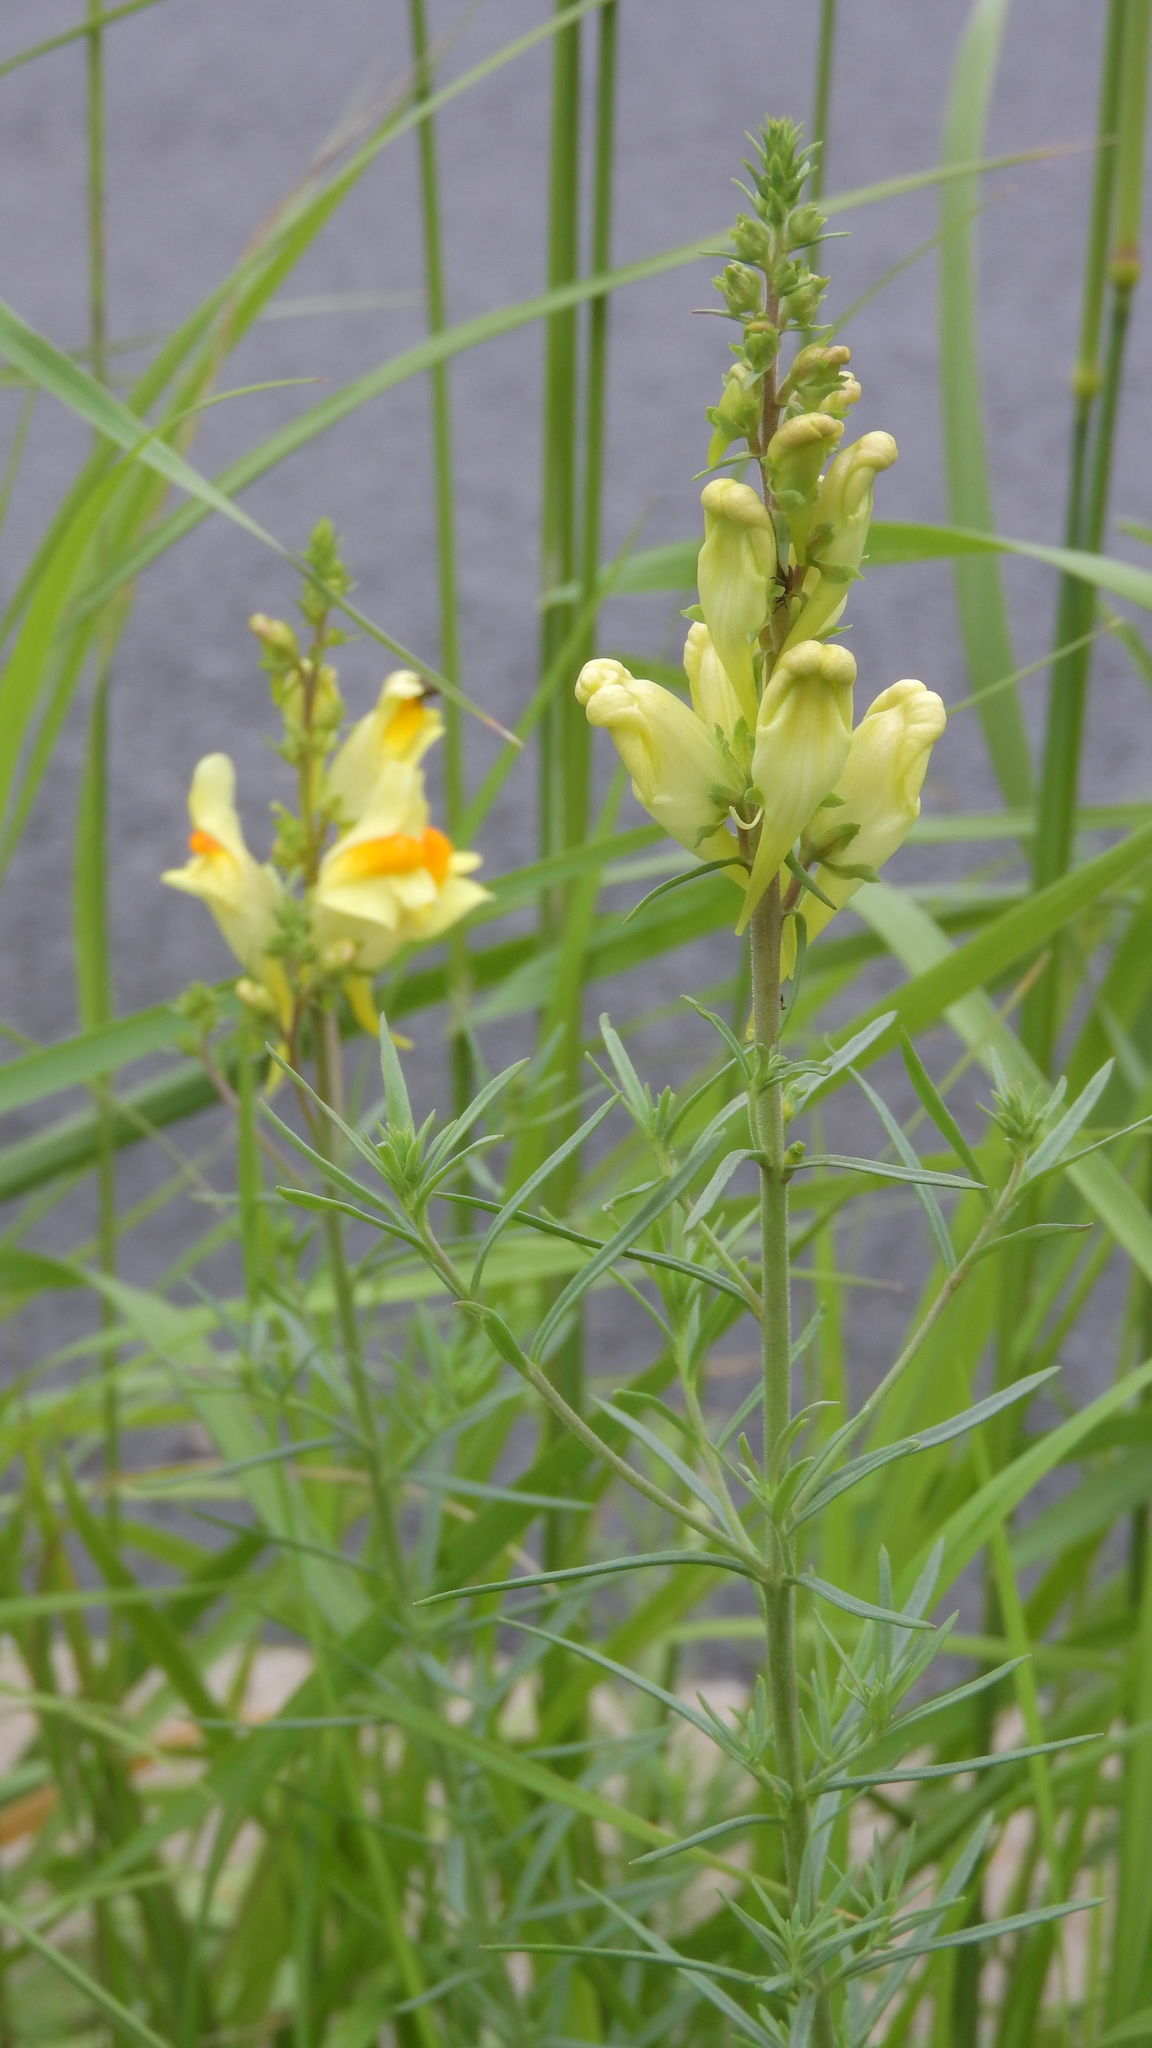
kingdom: Plantae
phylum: Tracheophyta
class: Magnoliopsida
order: Lamiales
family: Plantaginaceae
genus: Linaria
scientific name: Linaria vulgaris
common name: Butter and eggs
